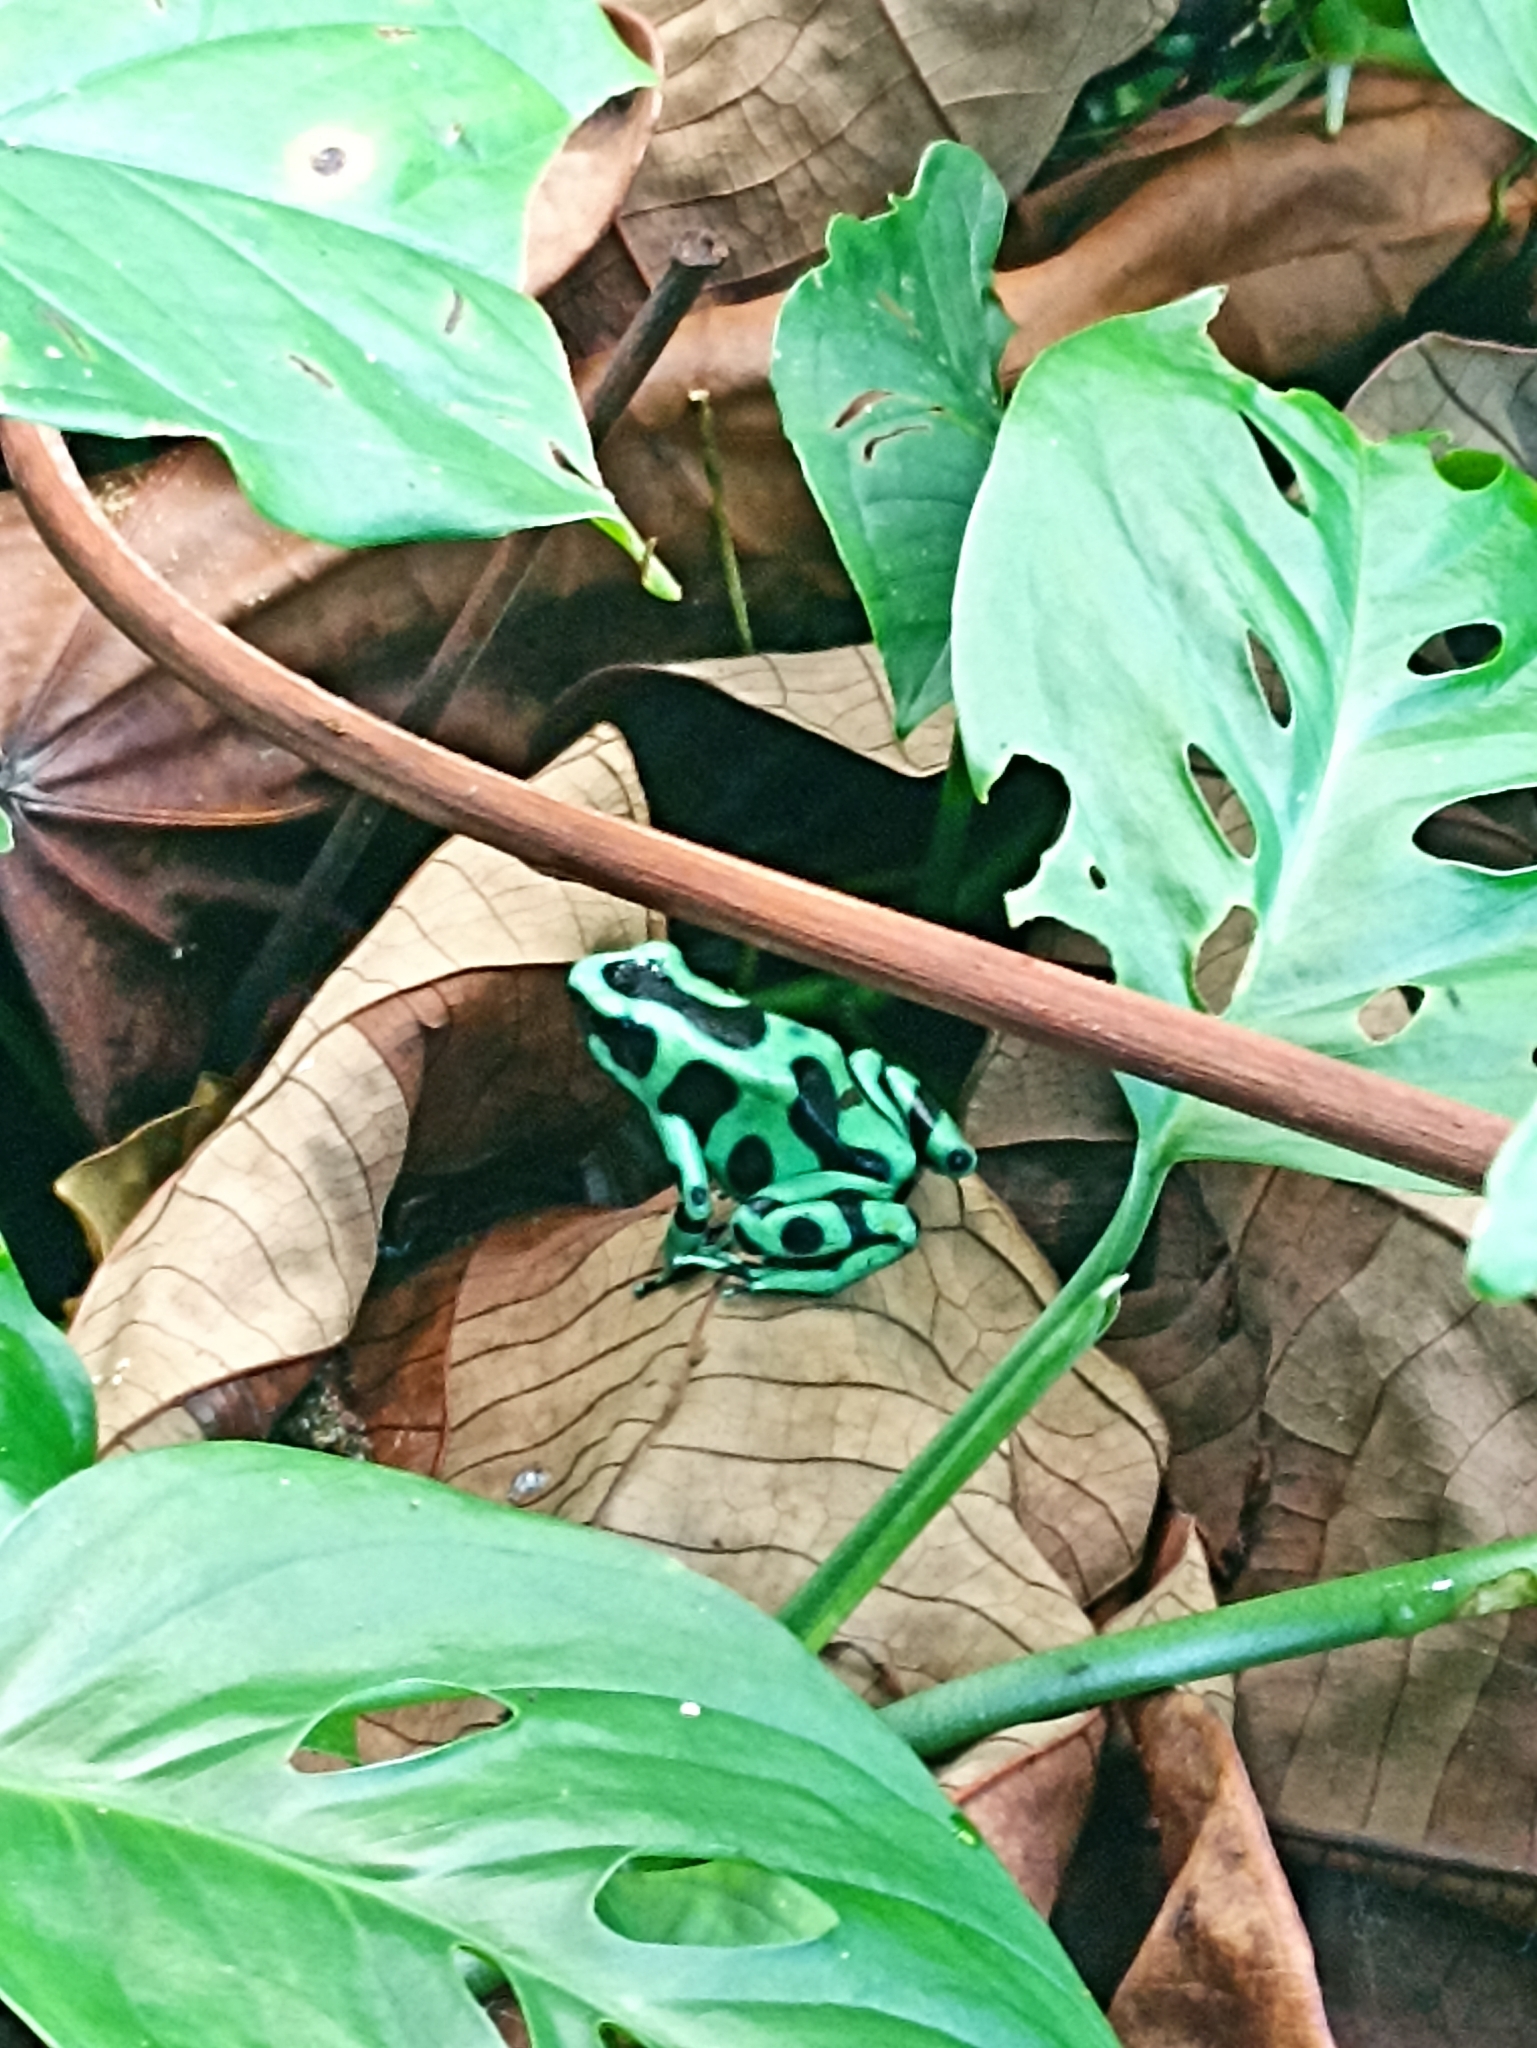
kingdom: Animalia
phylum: Chordata
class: Amphibia
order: Anura
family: Dendrobatidae
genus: Dendrobates
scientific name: Dendrobates auratus
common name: Green and black poison dart frog
